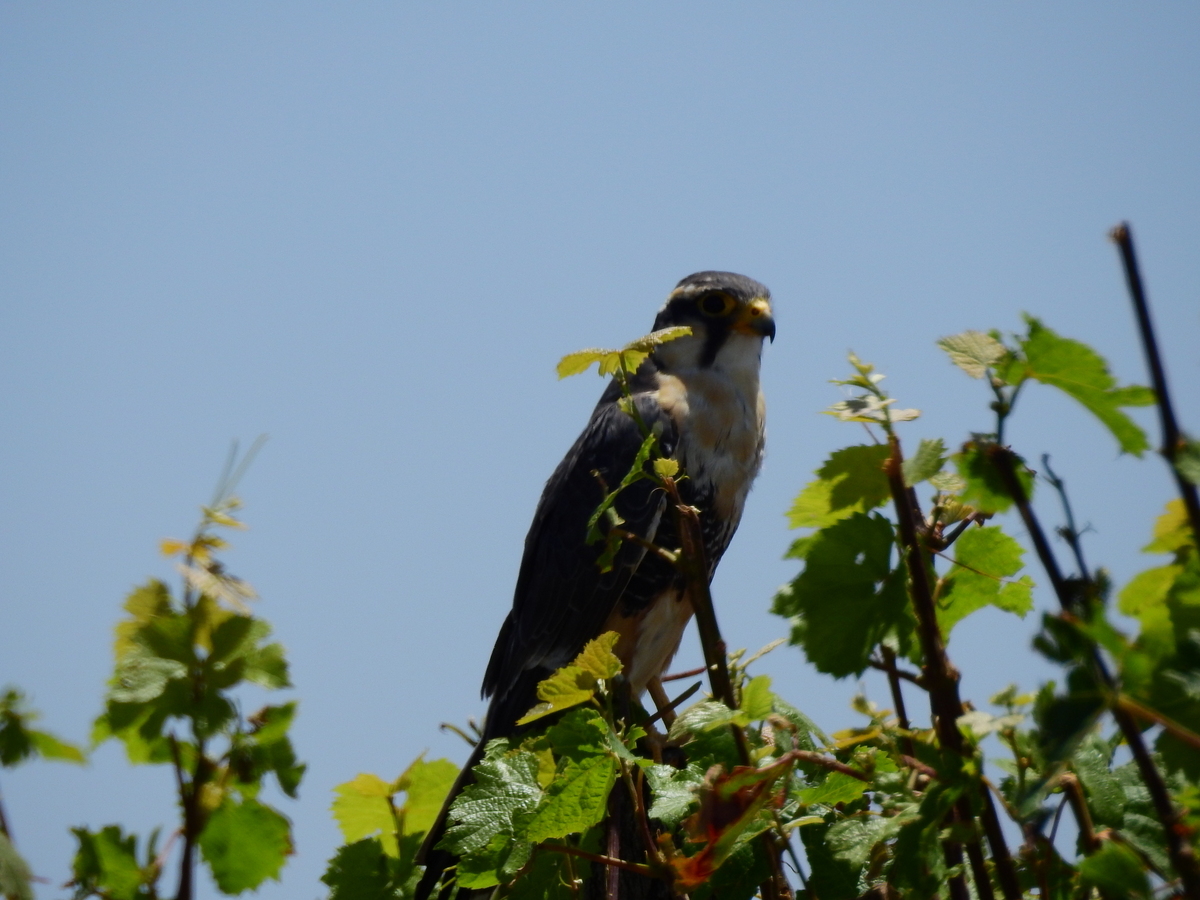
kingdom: Animalia
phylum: Chordata
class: Aves
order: Falconiformes
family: Falconidae
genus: Falco
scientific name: Falco femoralis
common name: Aplomado falcon
